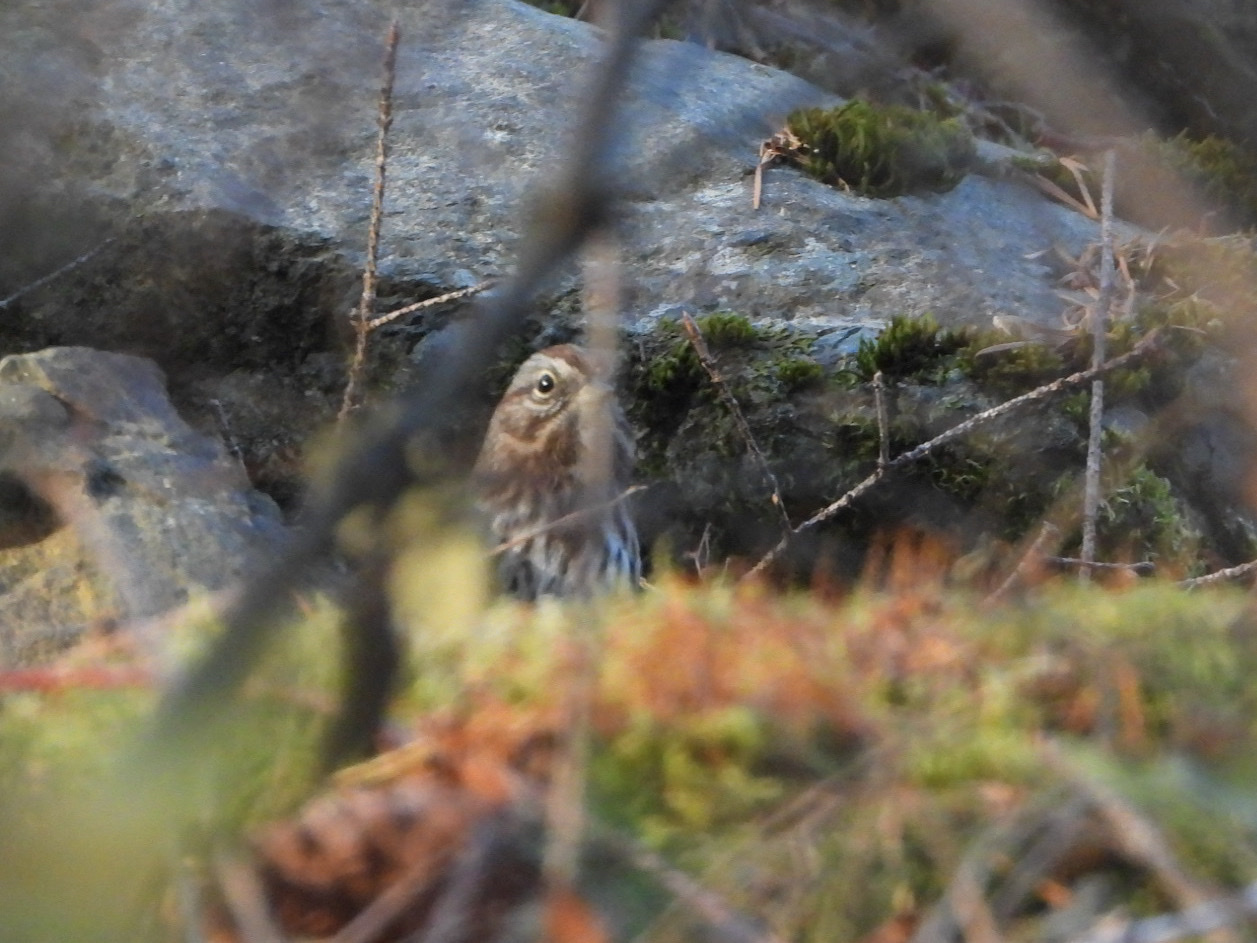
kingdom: Animalia
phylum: Chordata
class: Aves
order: Passeriformes
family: Passerellidae
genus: Melospiza
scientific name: Melospiza melodia
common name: Song sparrow
